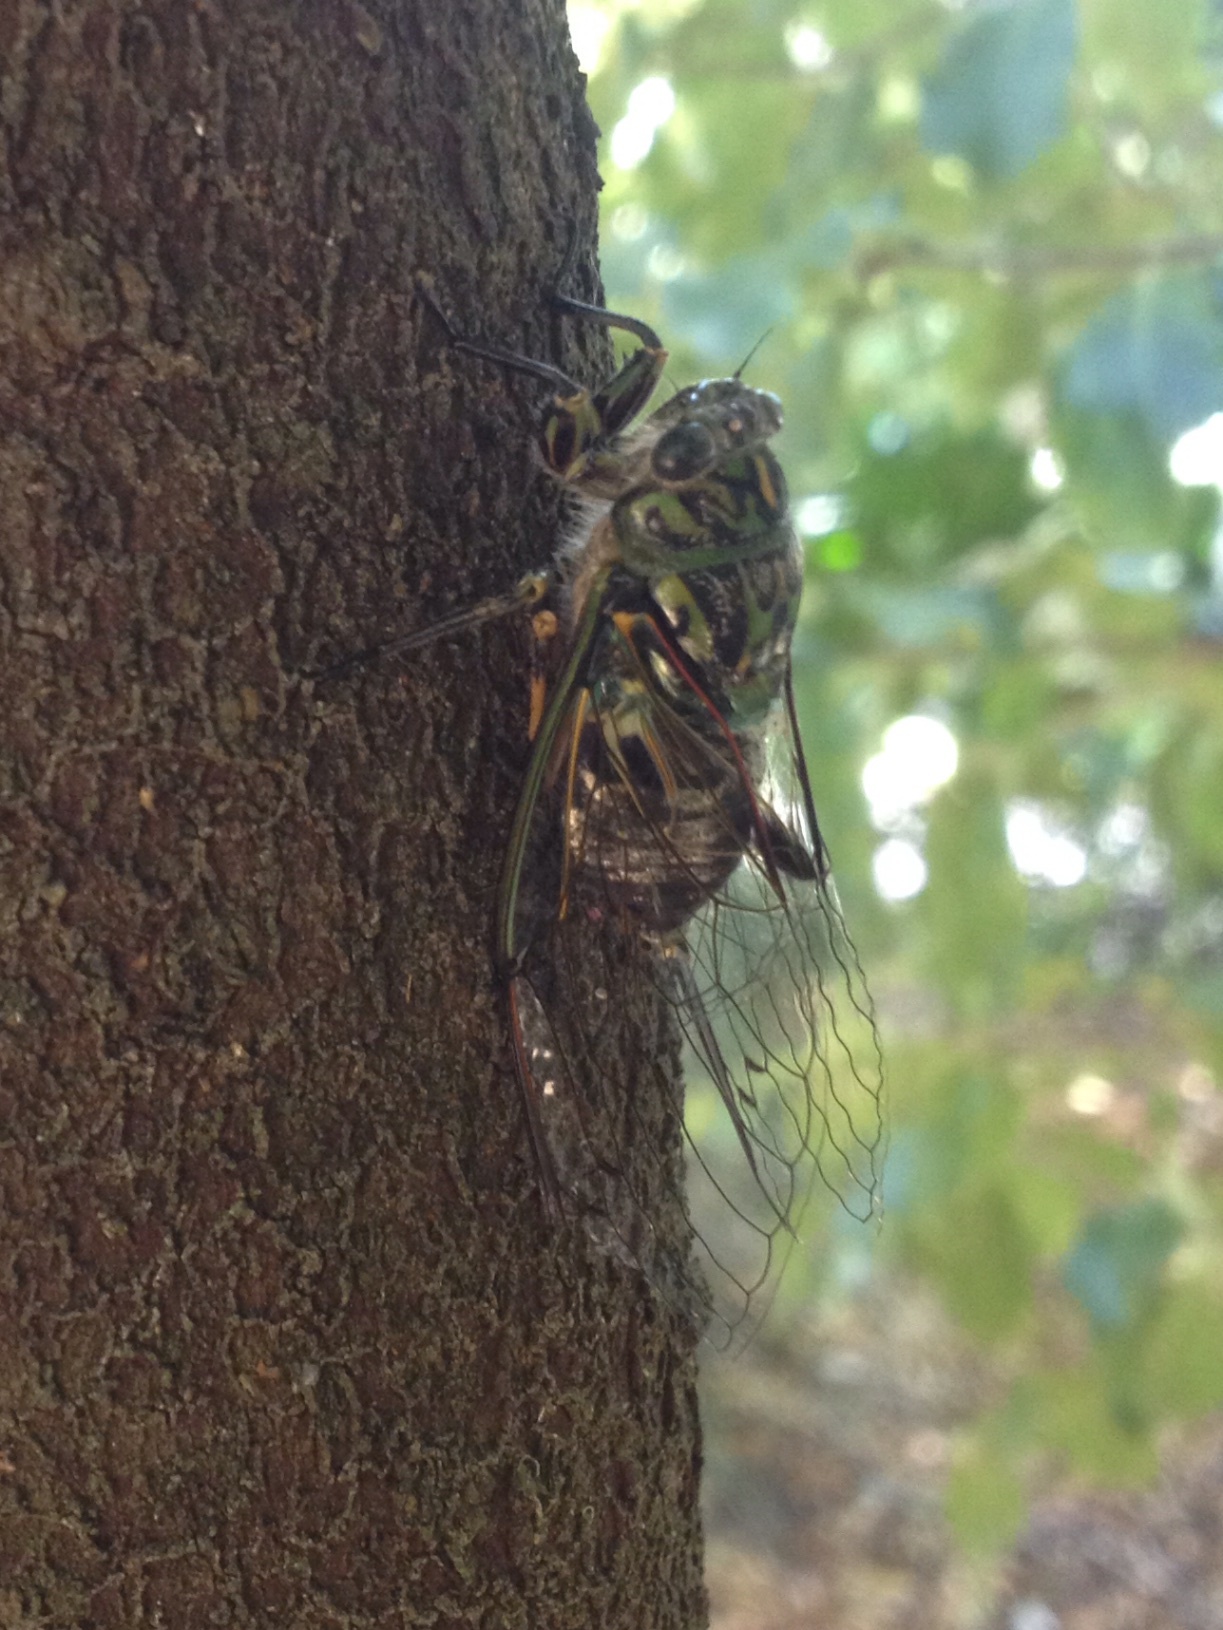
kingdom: Animalia
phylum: Arthropoda
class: Insecta
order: Hemiptera
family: Cicadidae
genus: Amphipsalta
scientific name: Amphipsalta zelandica
